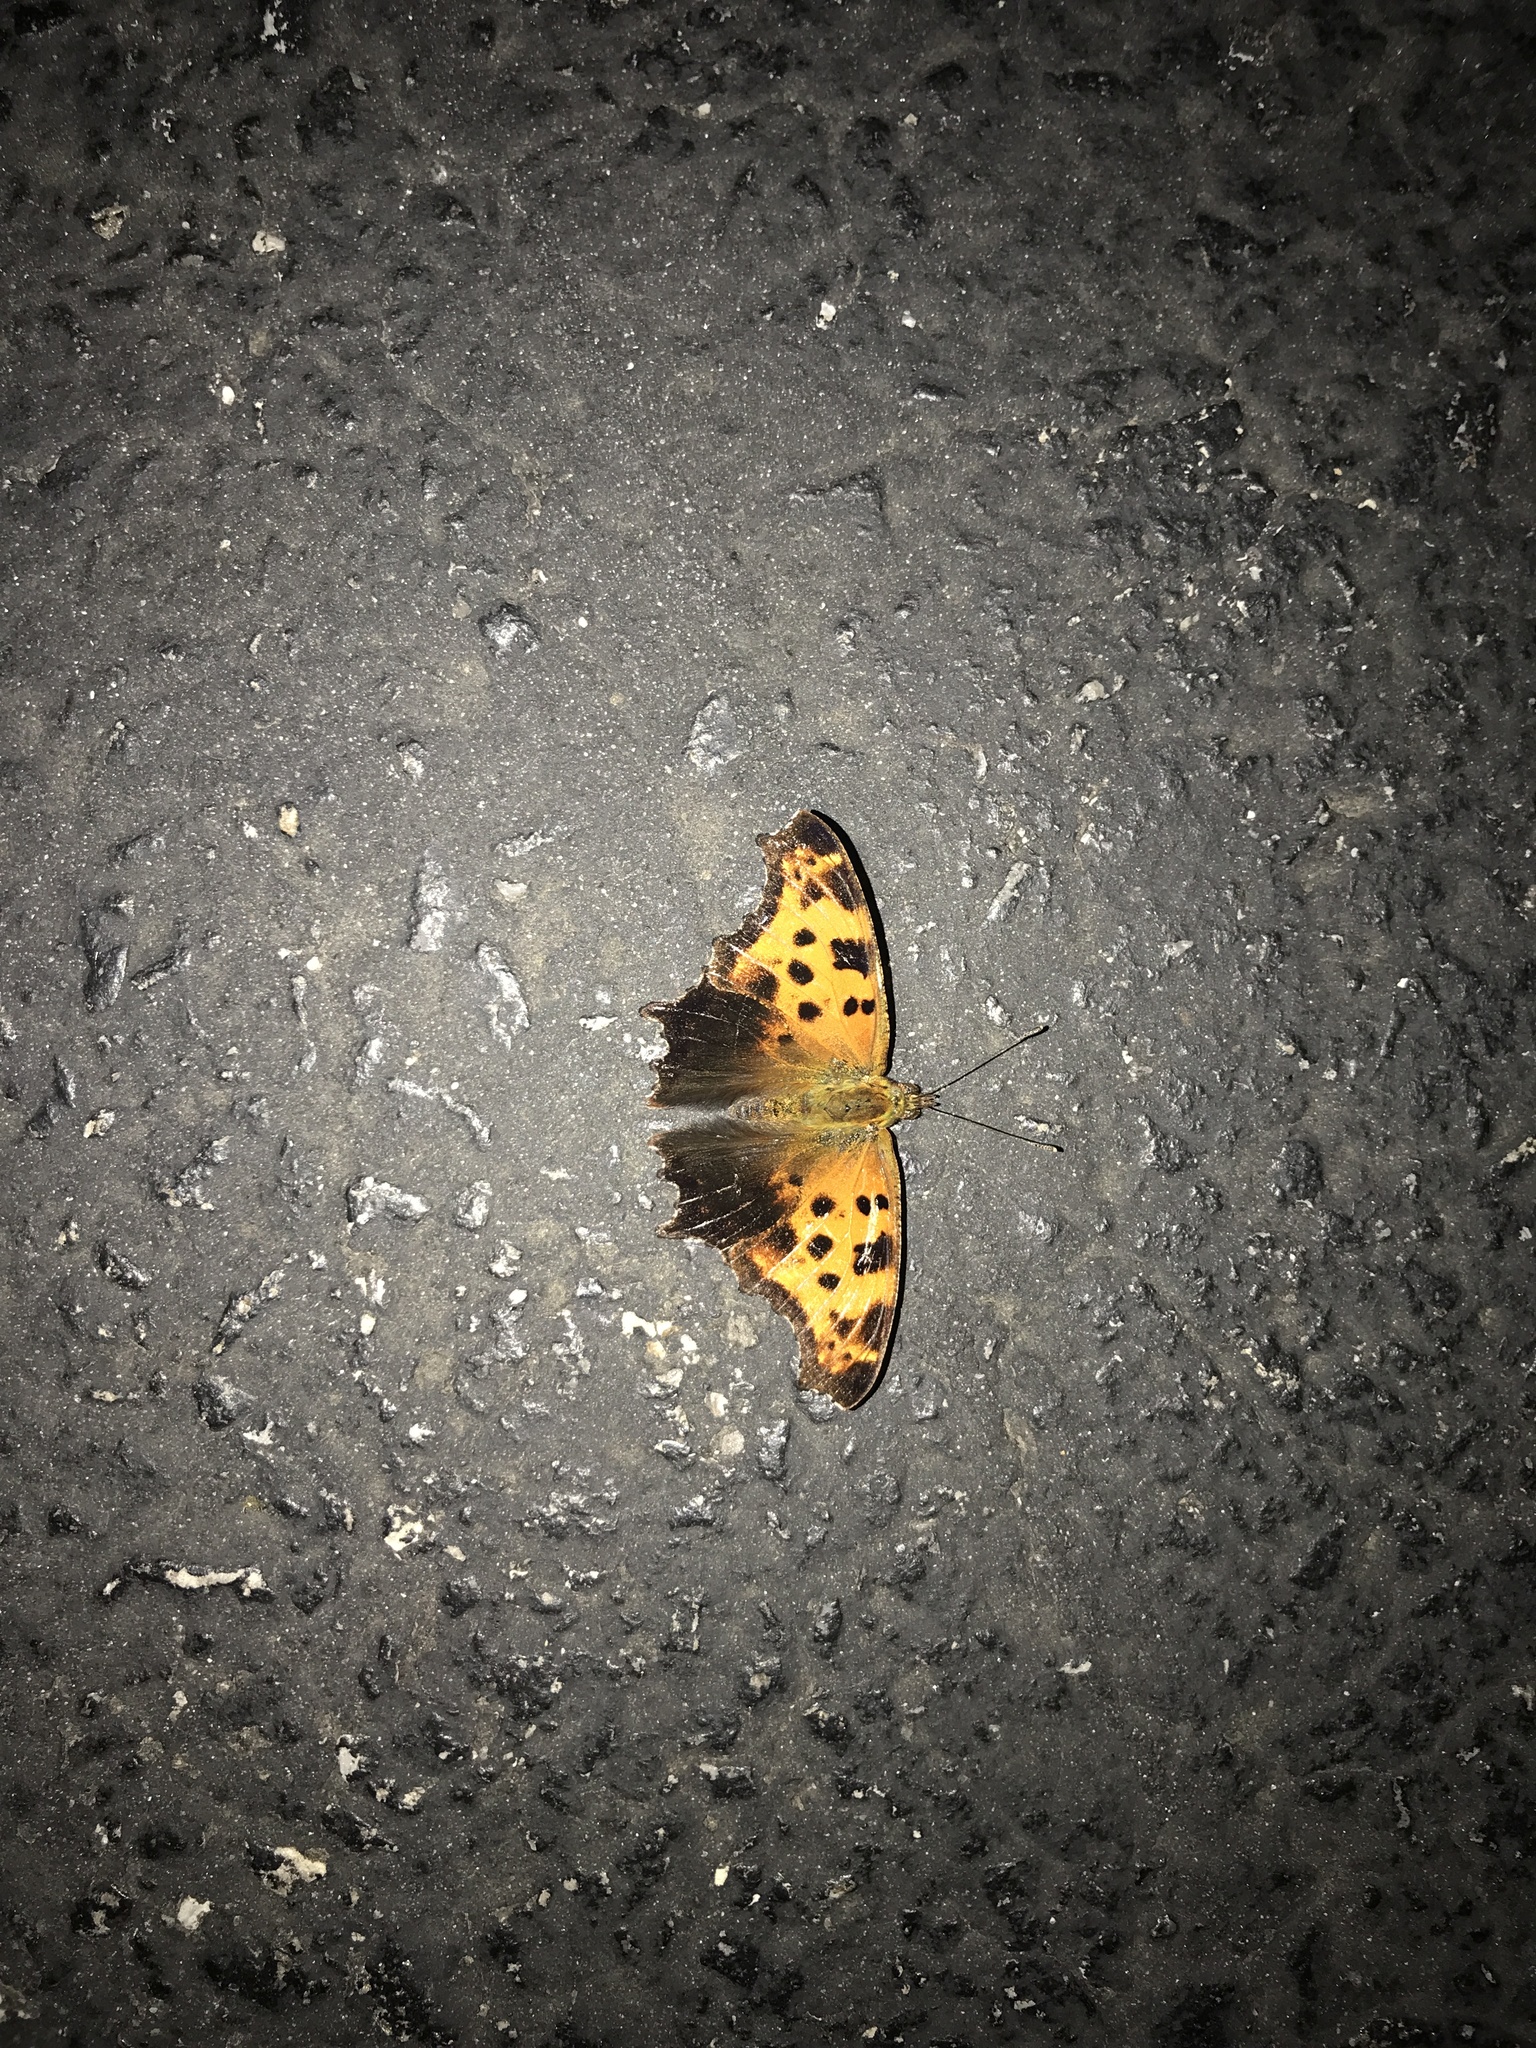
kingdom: Animalia
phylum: Arthropoda
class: Insecta
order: Lepidoptera
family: Nymphalidae
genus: Polygonia
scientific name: Polygonia comma
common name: Eastern comma
